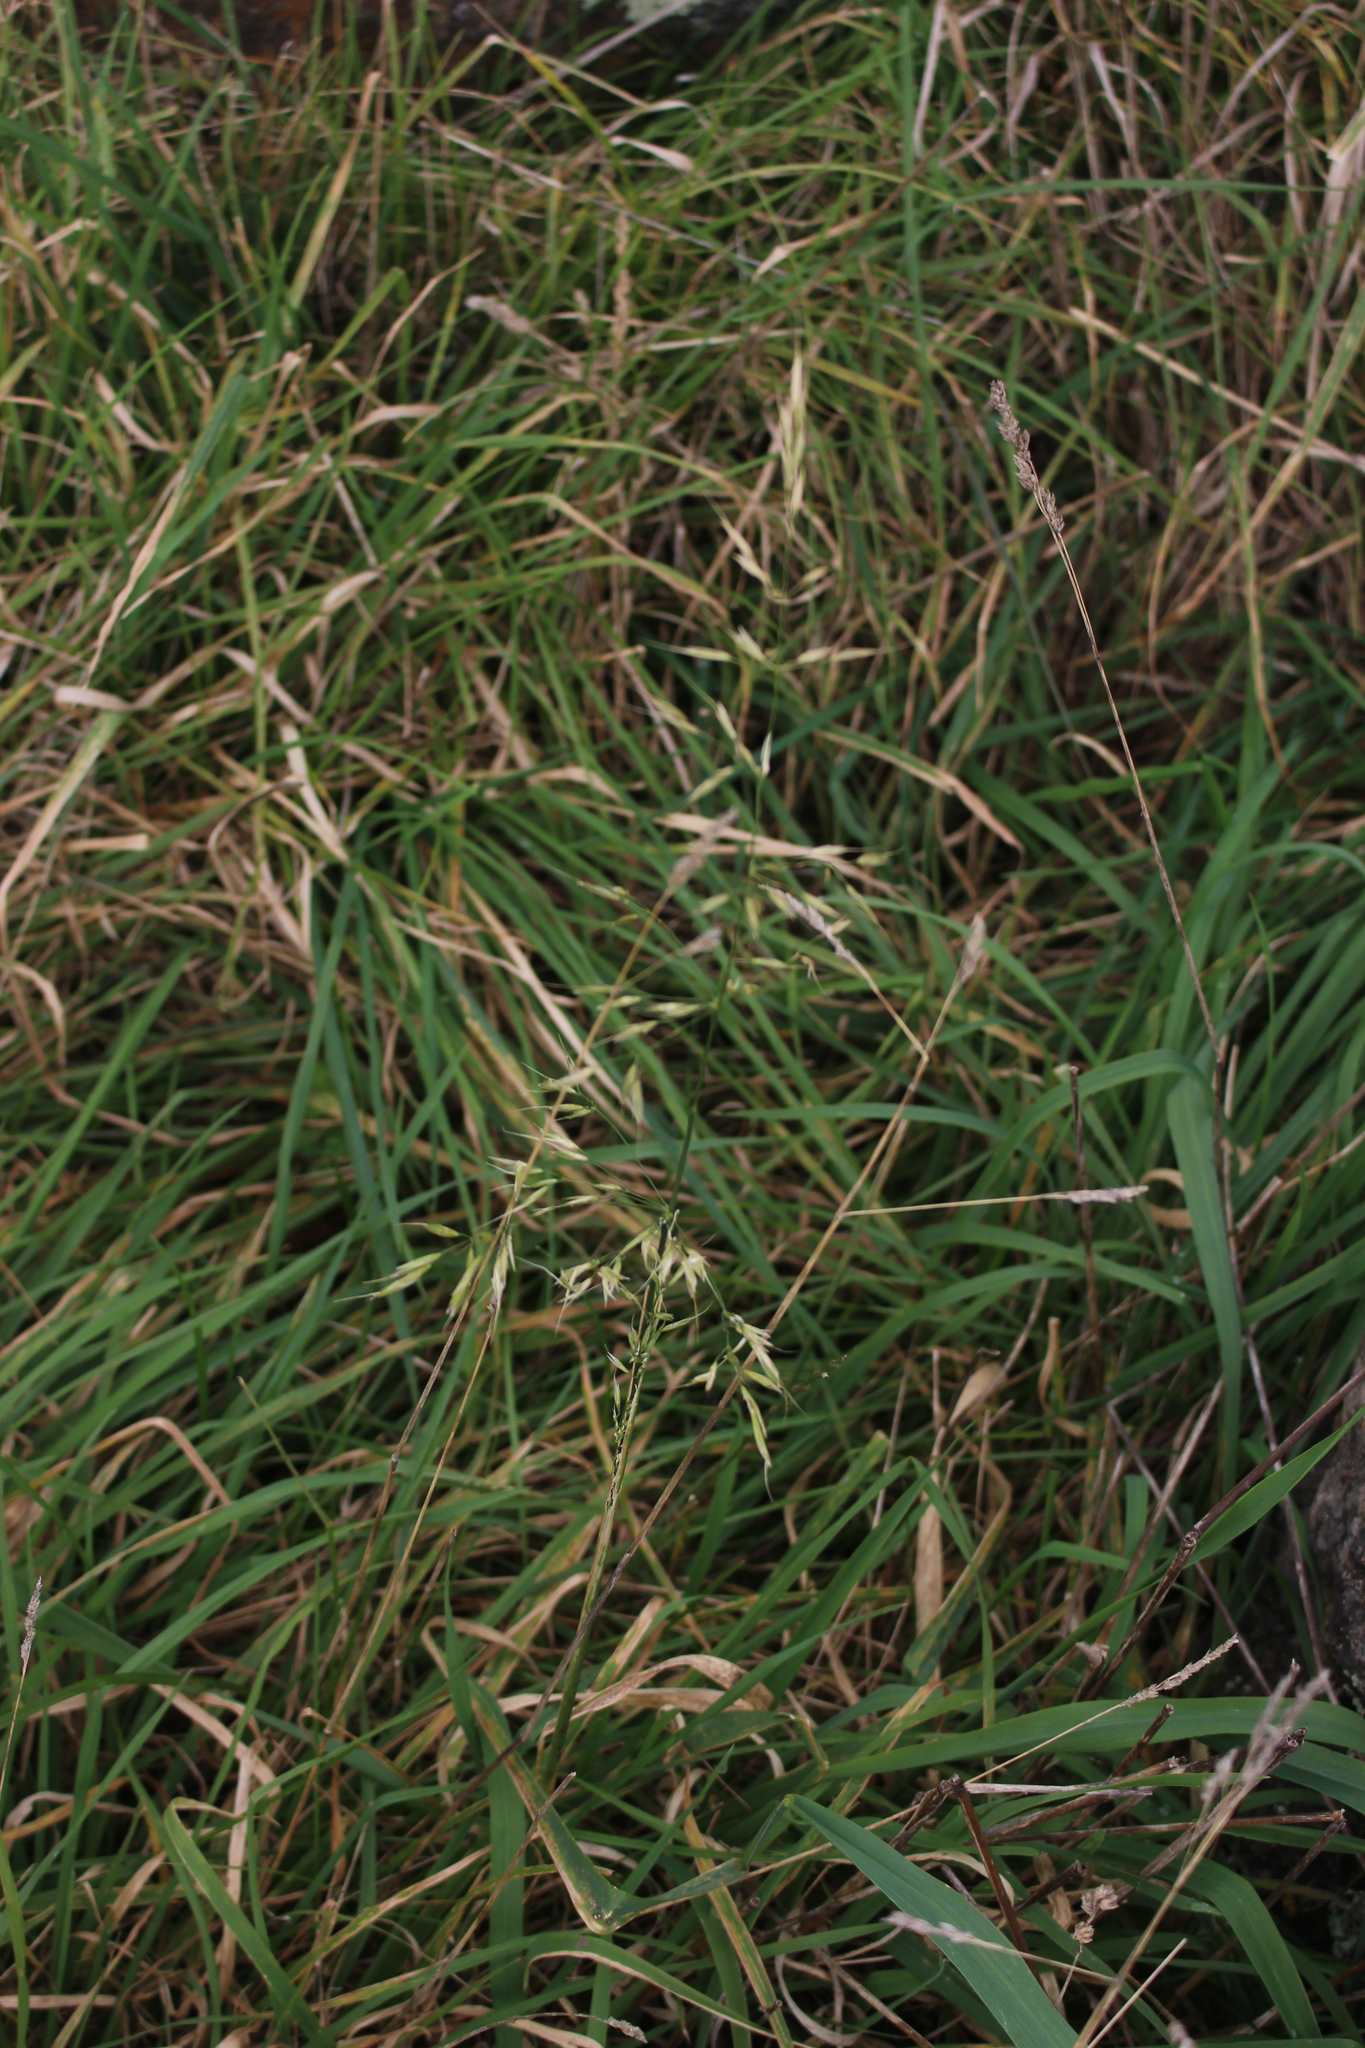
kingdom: Plantae
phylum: Tracheophyta
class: Liliopsida
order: Poales
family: Poaceae
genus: Arrhenatherum
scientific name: Arrhenatherum elatius
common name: Tall oatgrass
